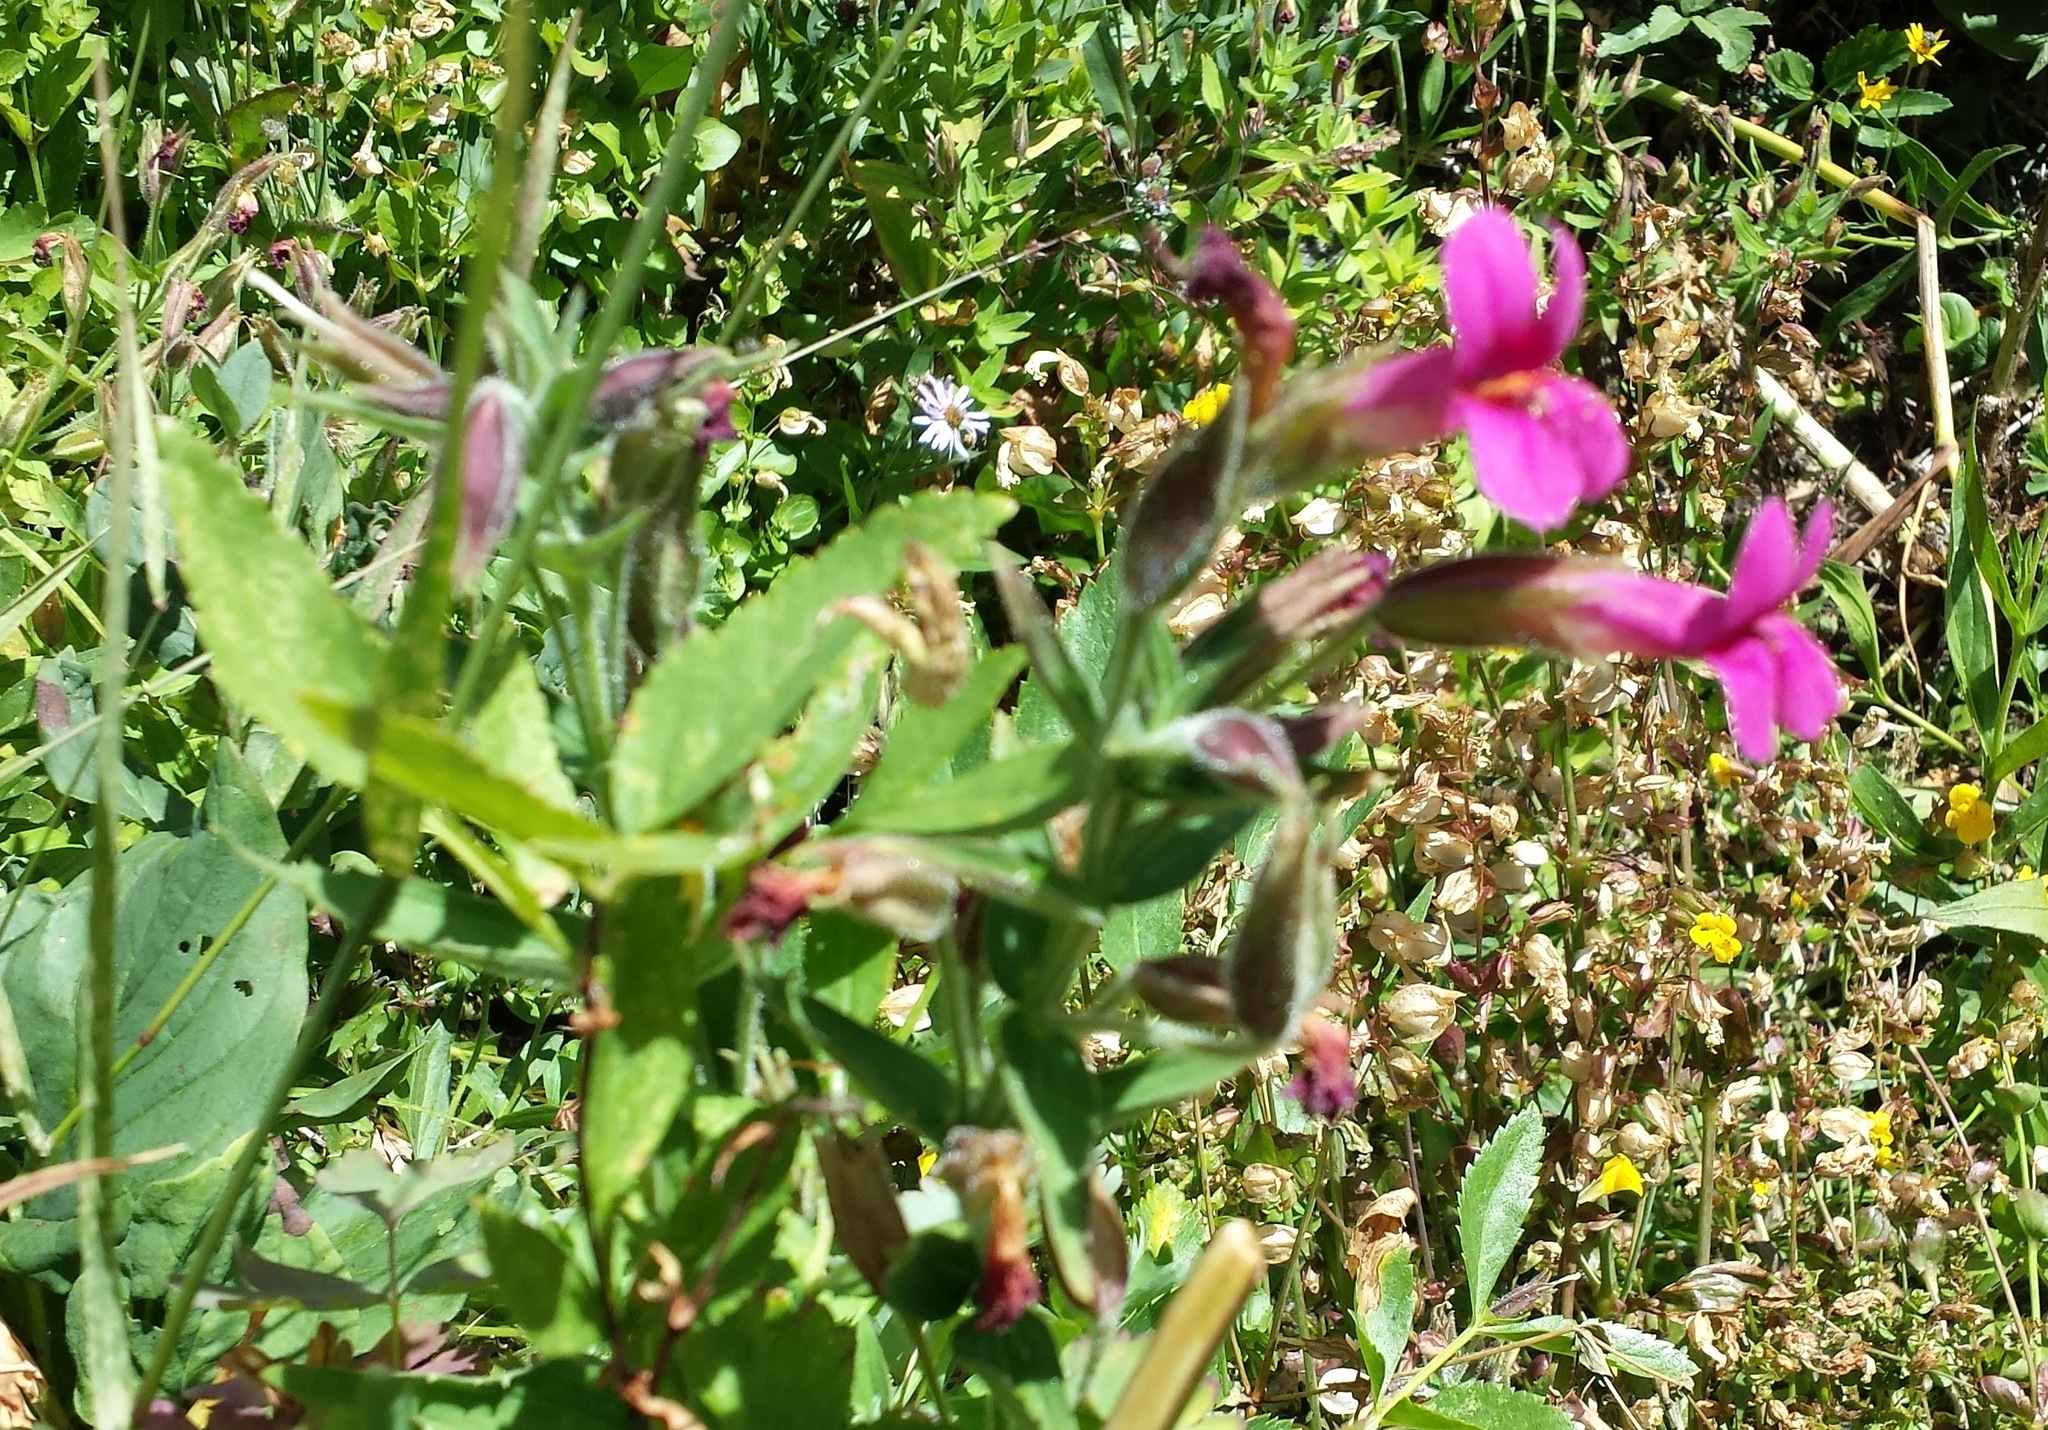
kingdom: Plantae
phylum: Tracheophyta
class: Magnoliopsida
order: Lamiales
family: Phrymaceae
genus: Erythranthe
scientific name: Erythranthe lewisii
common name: Lewis's monkey-flower
